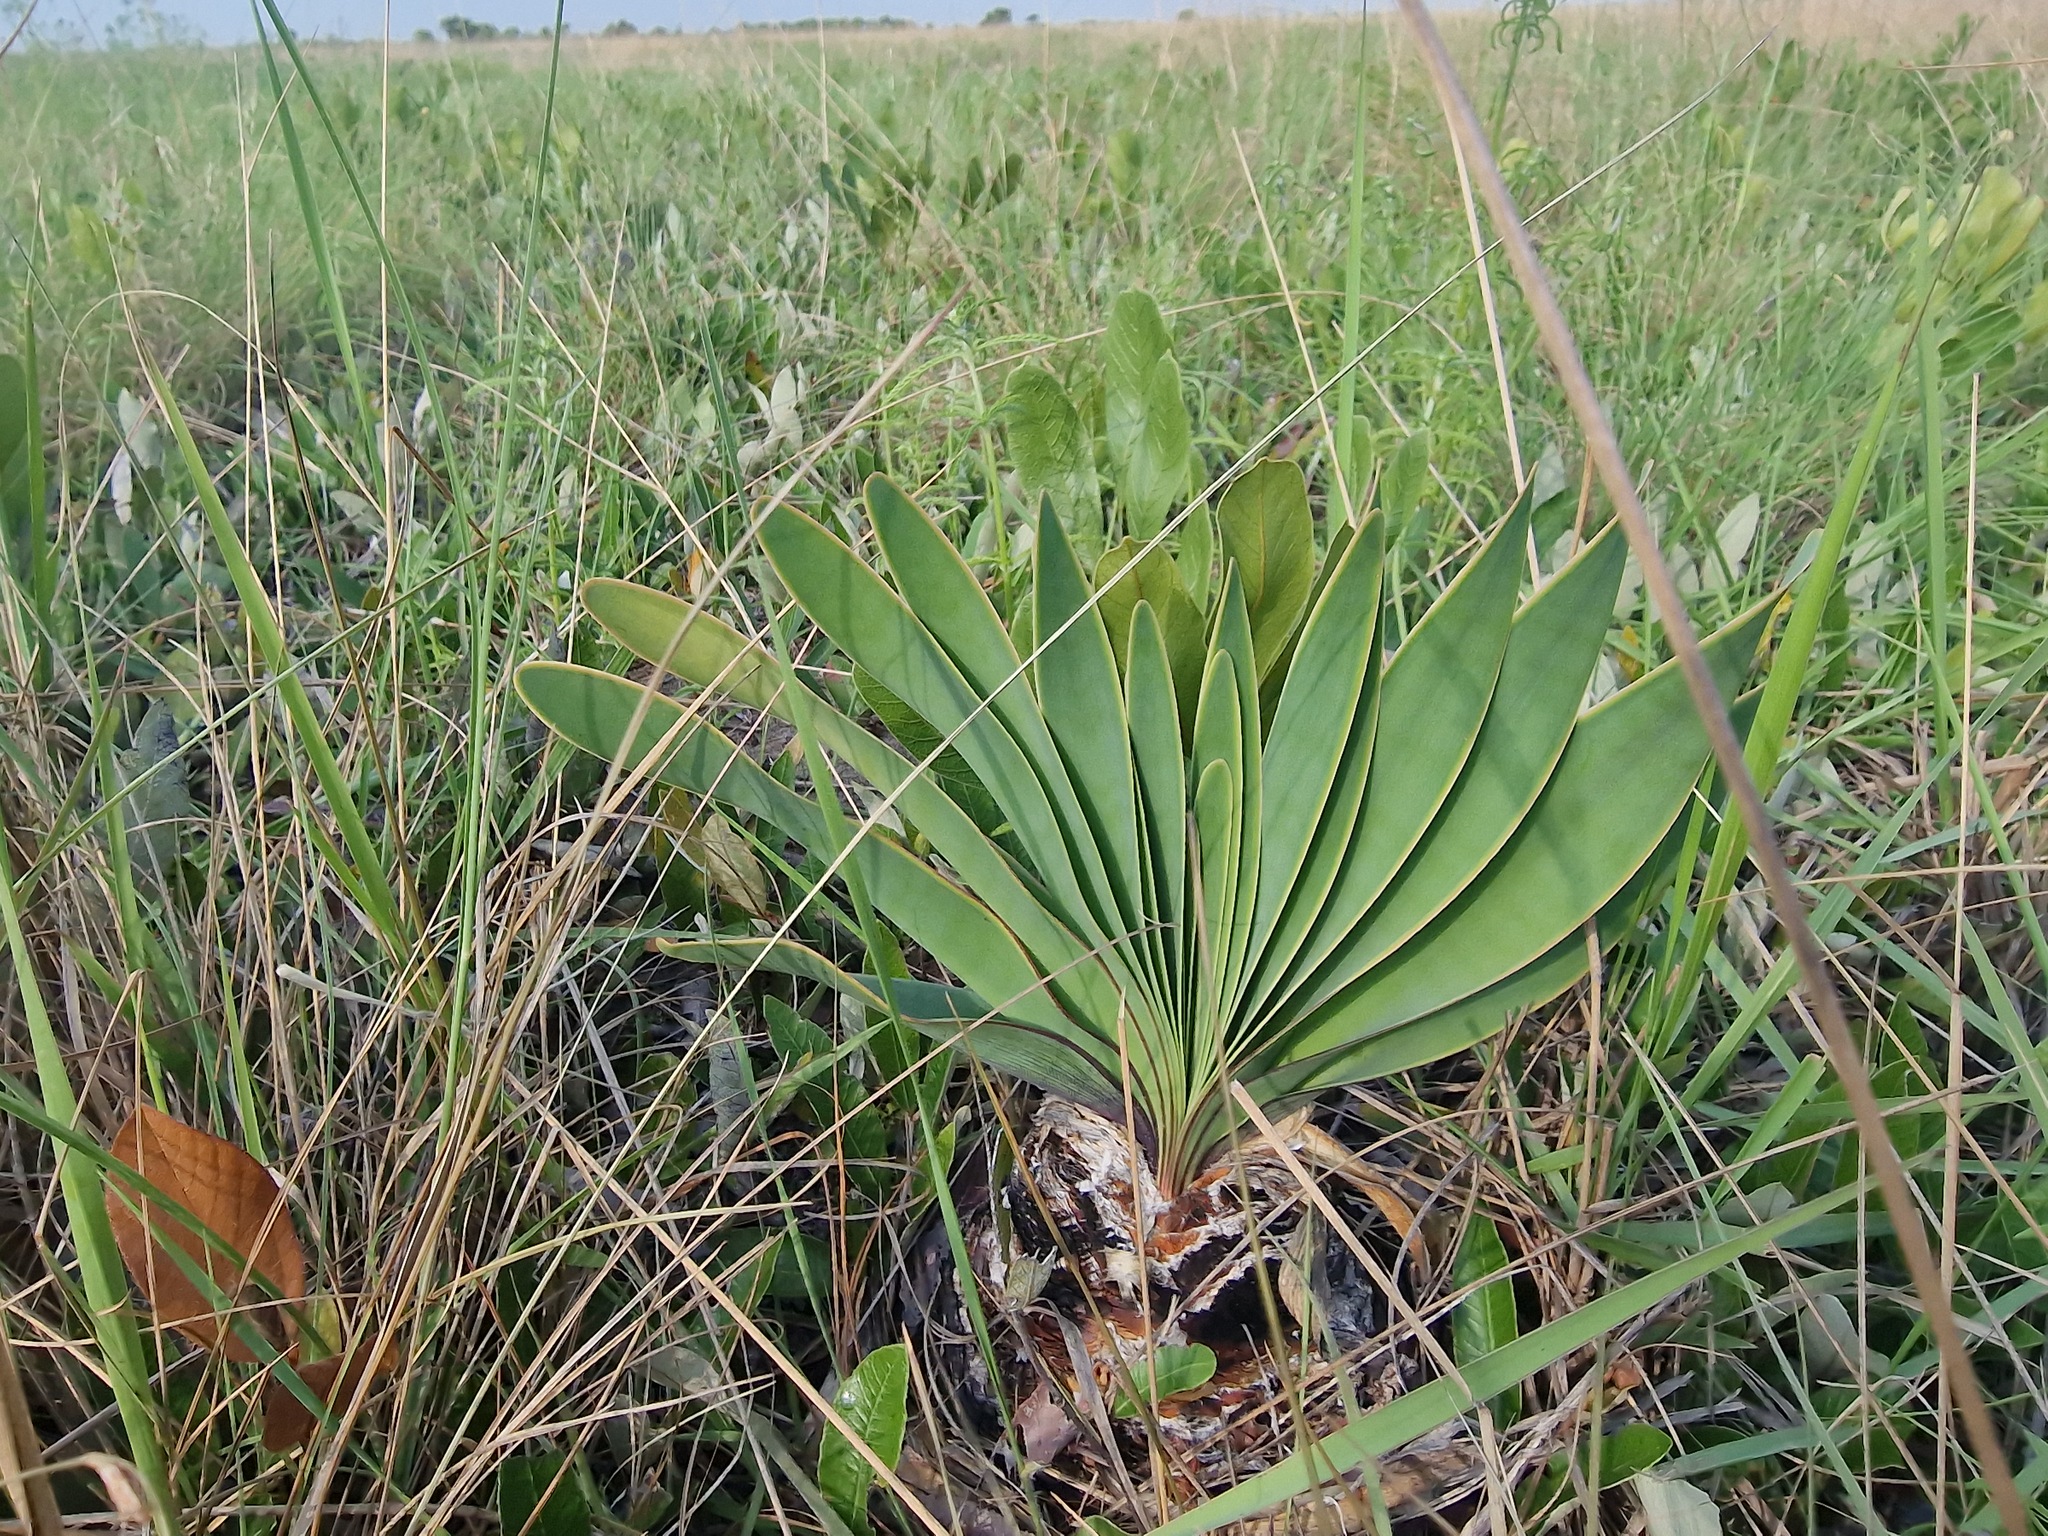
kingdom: Plantae
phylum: Tracheophyta
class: Liliopsida
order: Asparagales
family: Amaryllidaceae
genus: Boophone
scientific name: Boophone disticha
